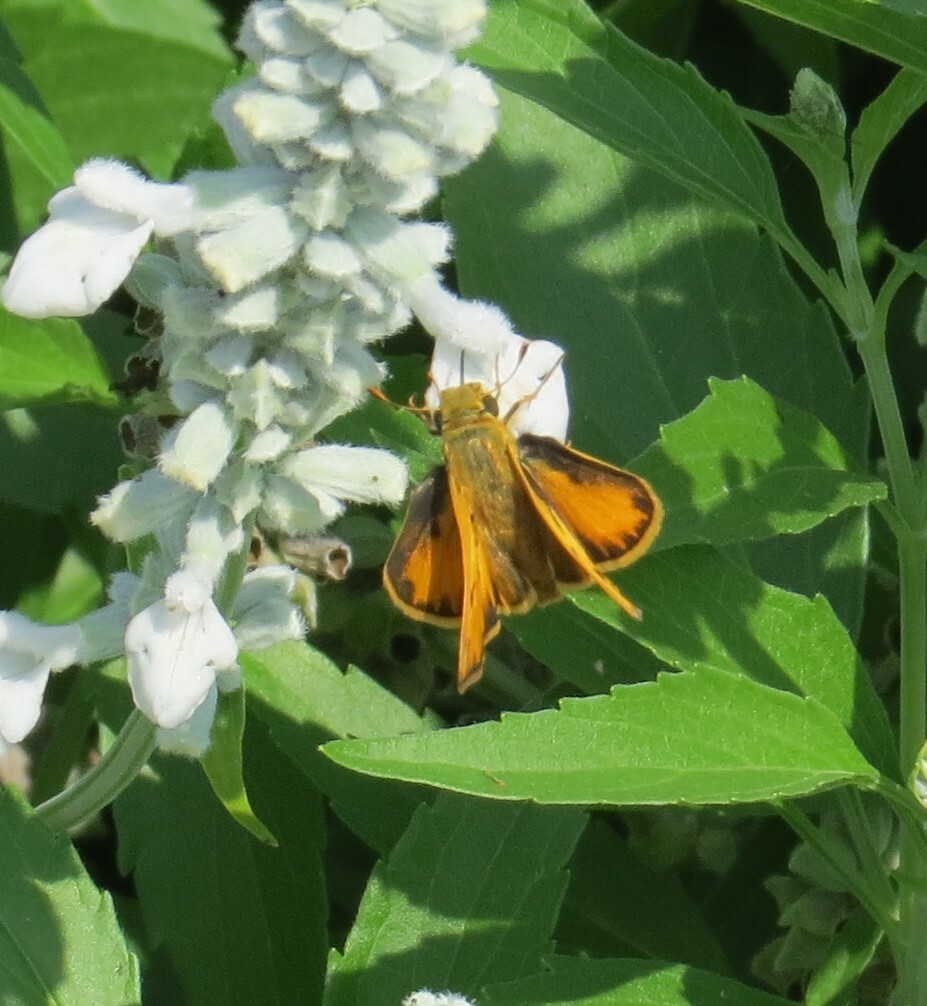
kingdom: Animalia
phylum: Arthropoda
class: Insecta
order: Lepidoptera
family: Hesperiidae
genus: Hylephila
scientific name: Hylephila phyleus
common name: Fiery skipper
